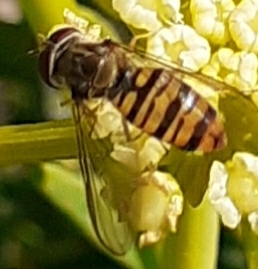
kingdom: Animalia
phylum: Arthropoda
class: Insecta
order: Diptera
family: Syrphidae
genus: Episyrphus
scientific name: Episyrphus balteatus
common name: Marmalade hoverfly
